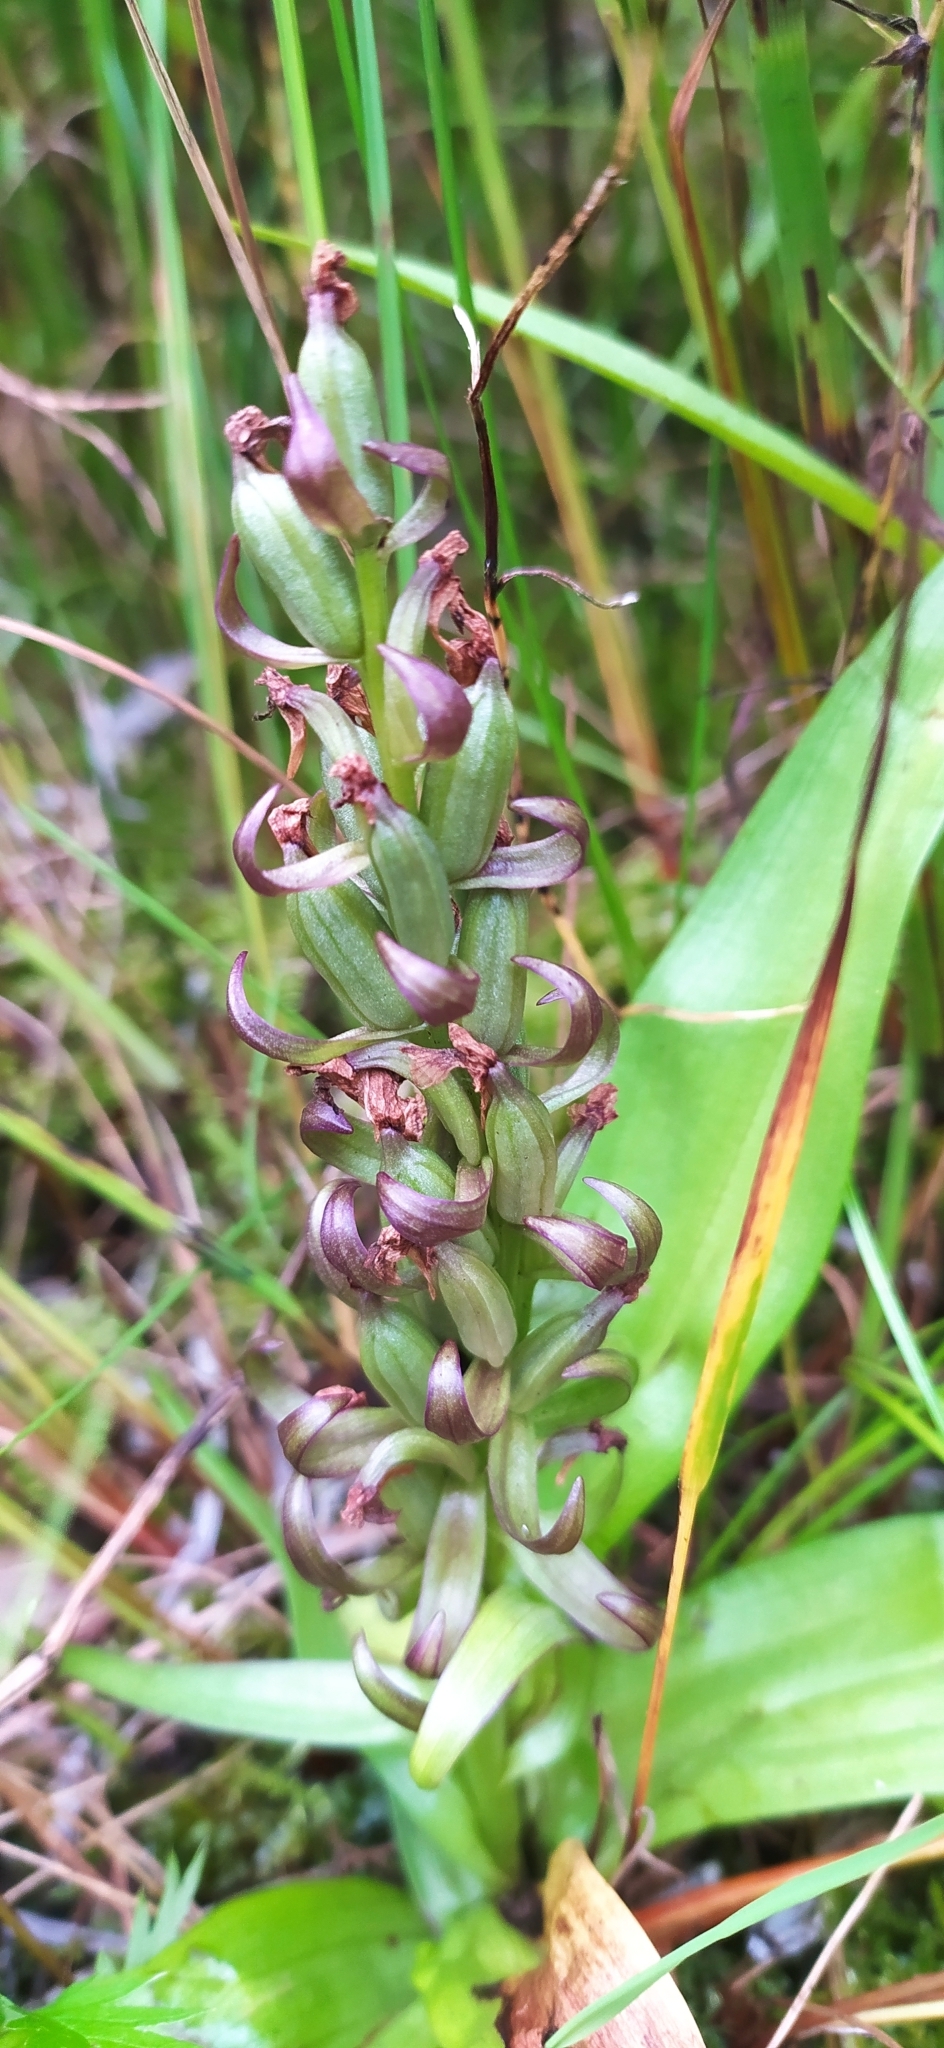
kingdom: Plantae
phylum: Tracheophyta
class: Liliopsida
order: Asparagales
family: Orchidaceae
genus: Dactylorhiza
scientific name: Dactylorhiza incarnata
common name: Early marsh-orchid
